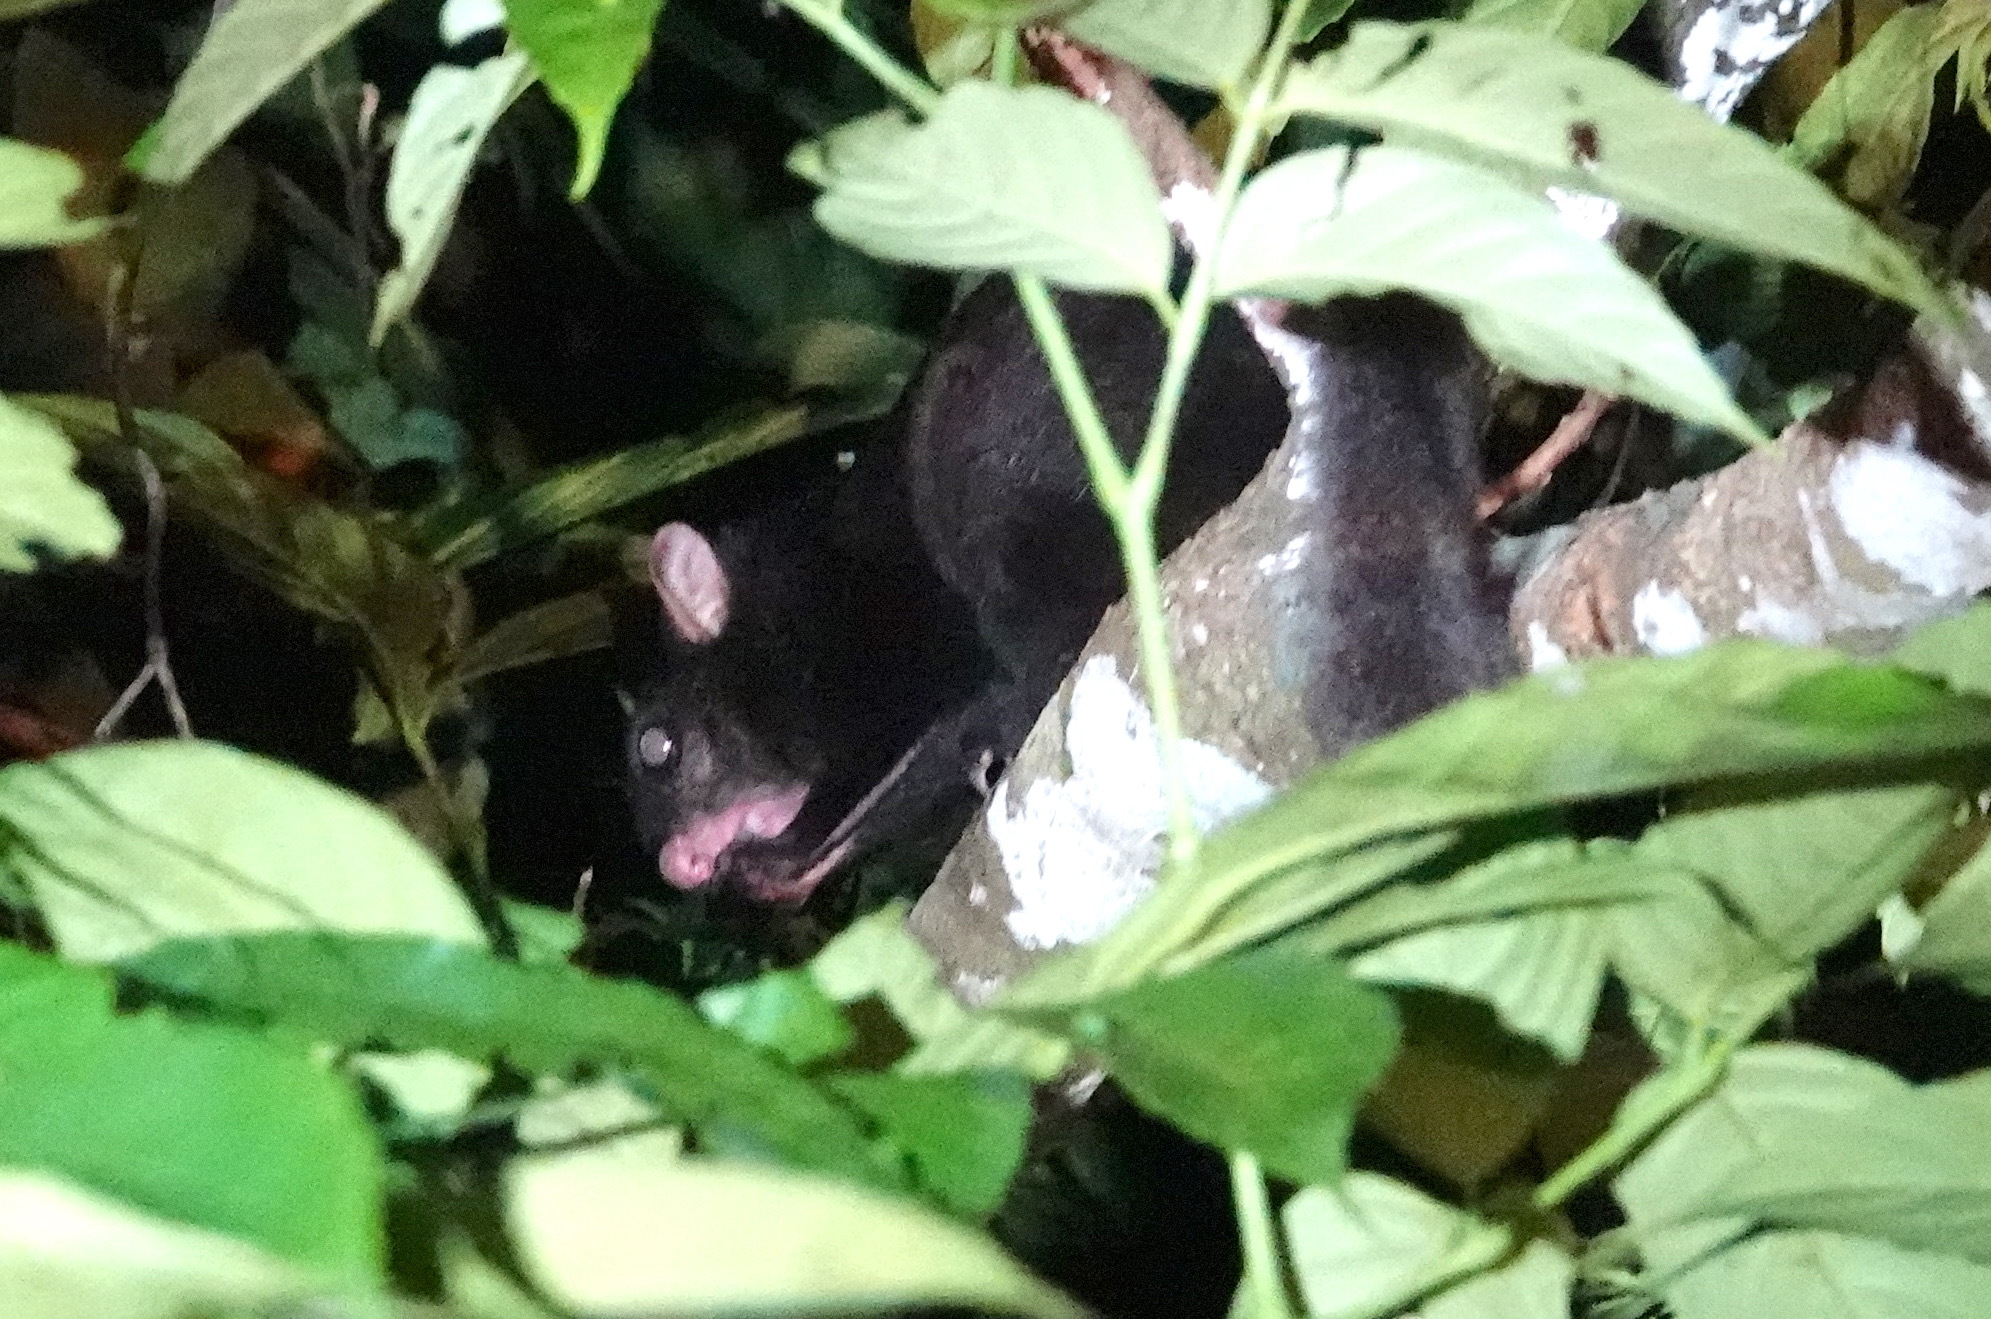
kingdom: Animalia
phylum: Chordata
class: Mammalia
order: Rodentia
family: Sciuridae
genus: Aeromys
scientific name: Aeromys tephromelas
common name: Black flying squirrel
